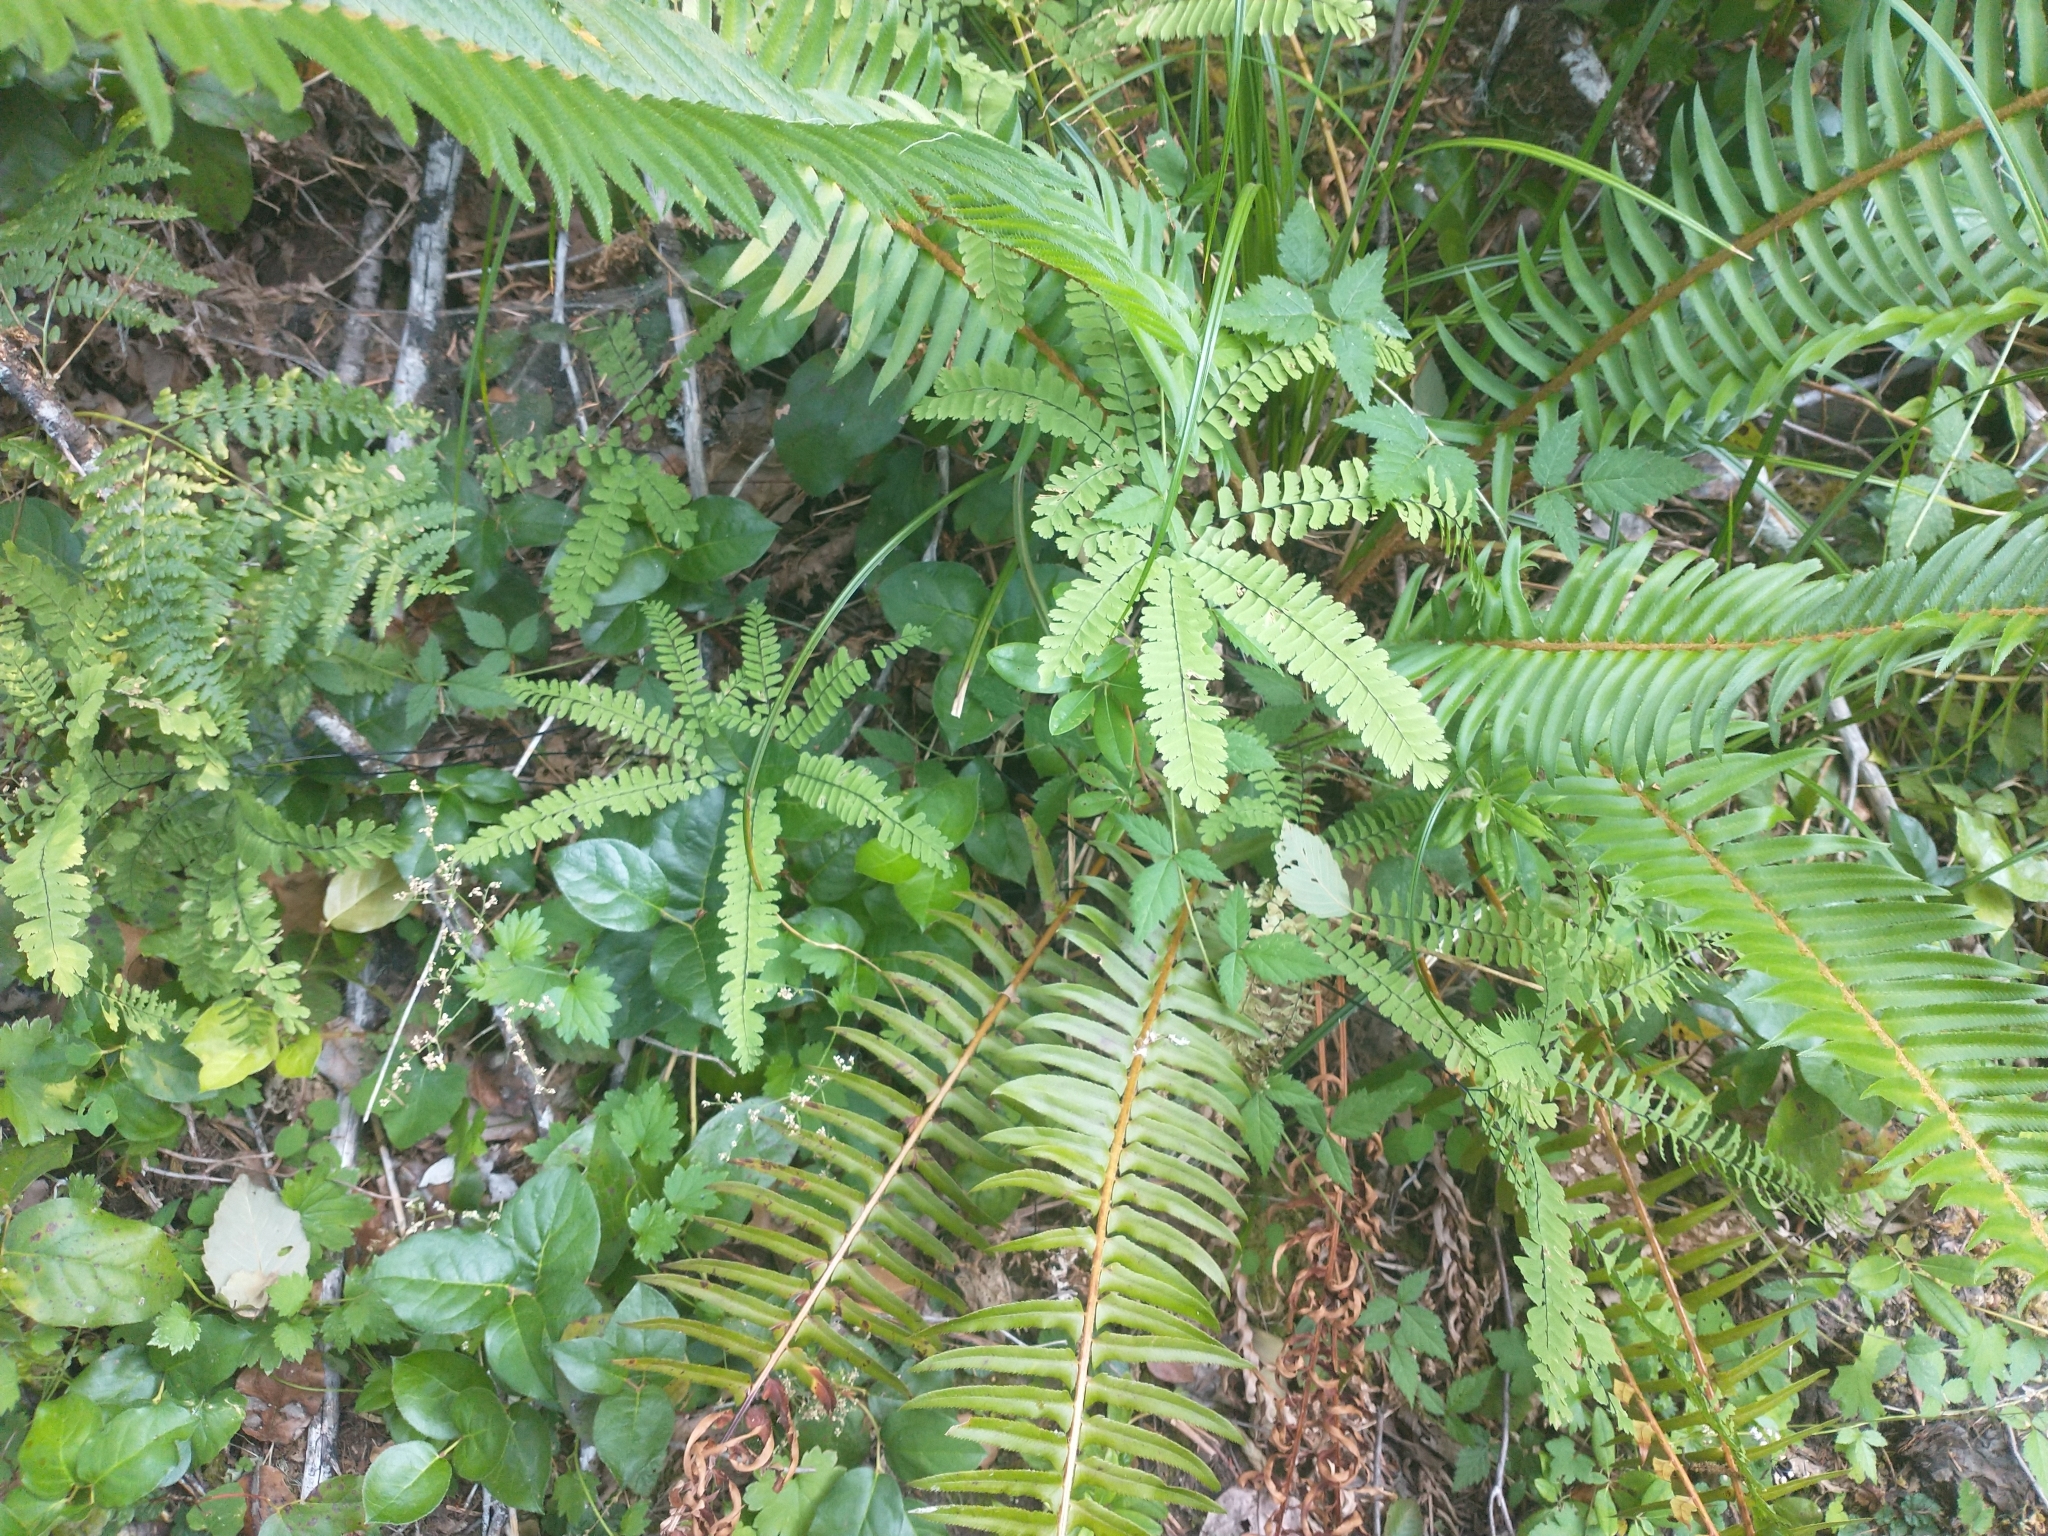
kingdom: Plantae
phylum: Tracheophyta
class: Polypodiopsida
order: Polypodiales
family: Dryopteridaceae
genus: Polystichum
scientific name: Polystichum munitum
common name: Western sword-fern
